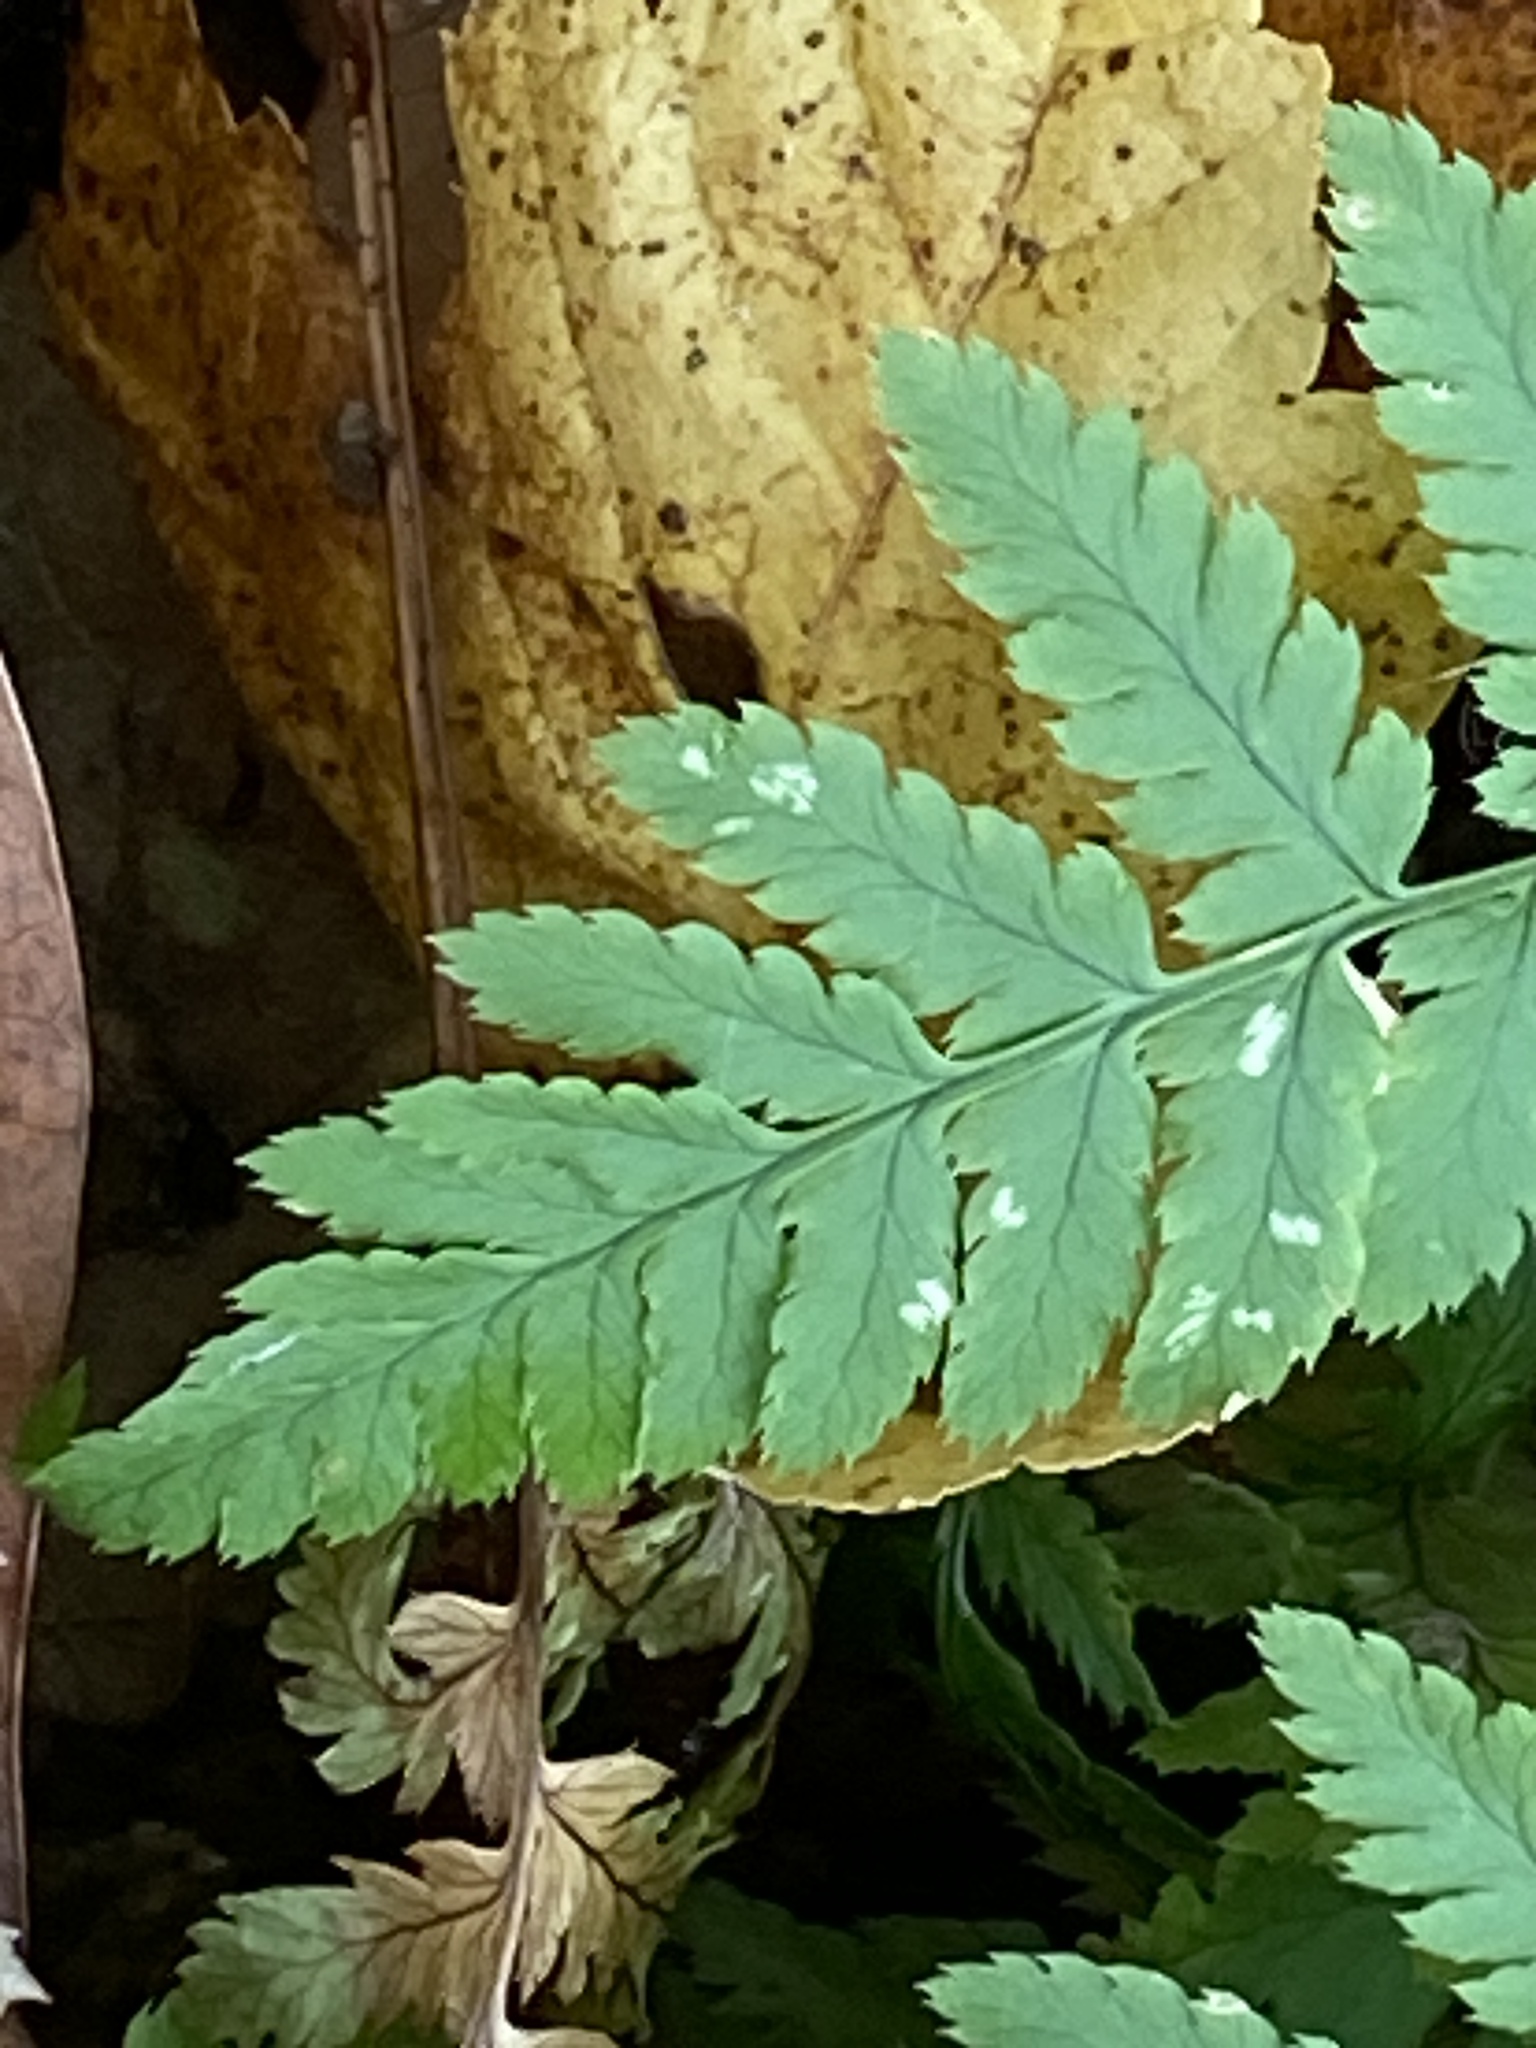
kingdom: Plantae
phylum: Tracheophyta
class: Polypodiopsida
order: Polypodiales
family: Dryopteridaceae
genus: Dryopteris
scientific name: Dryopteris carthusiana
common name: Narrow buckler-fern
